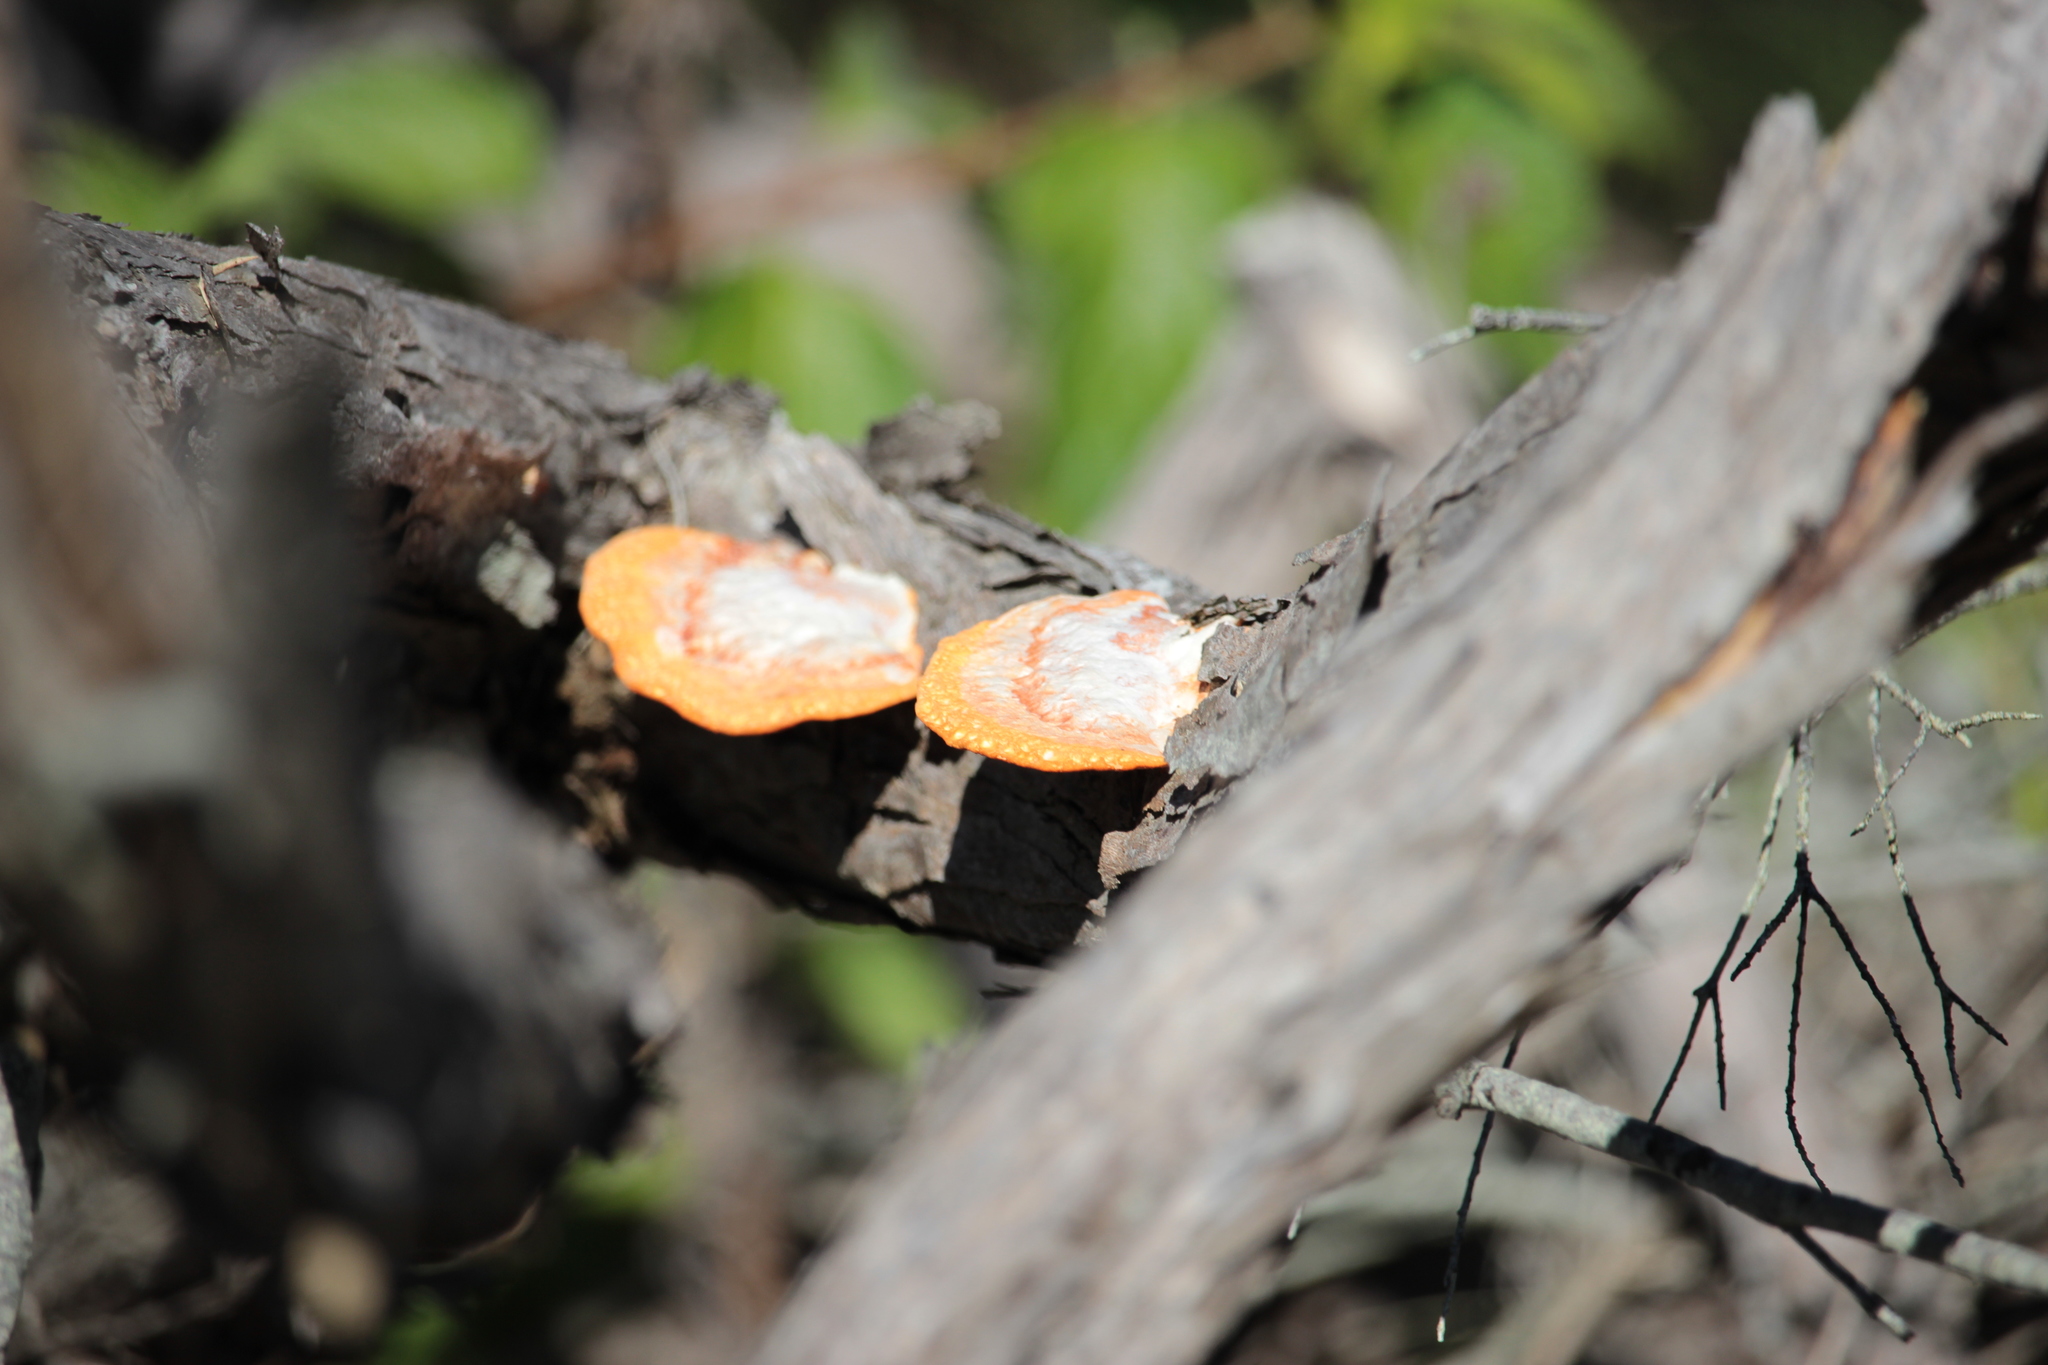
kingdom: Fungi
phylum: Basidiomycota
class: Agaricomycetes
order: Polyporales
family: Polyporaceae
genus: Trametes
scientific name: Trametes coccinea
